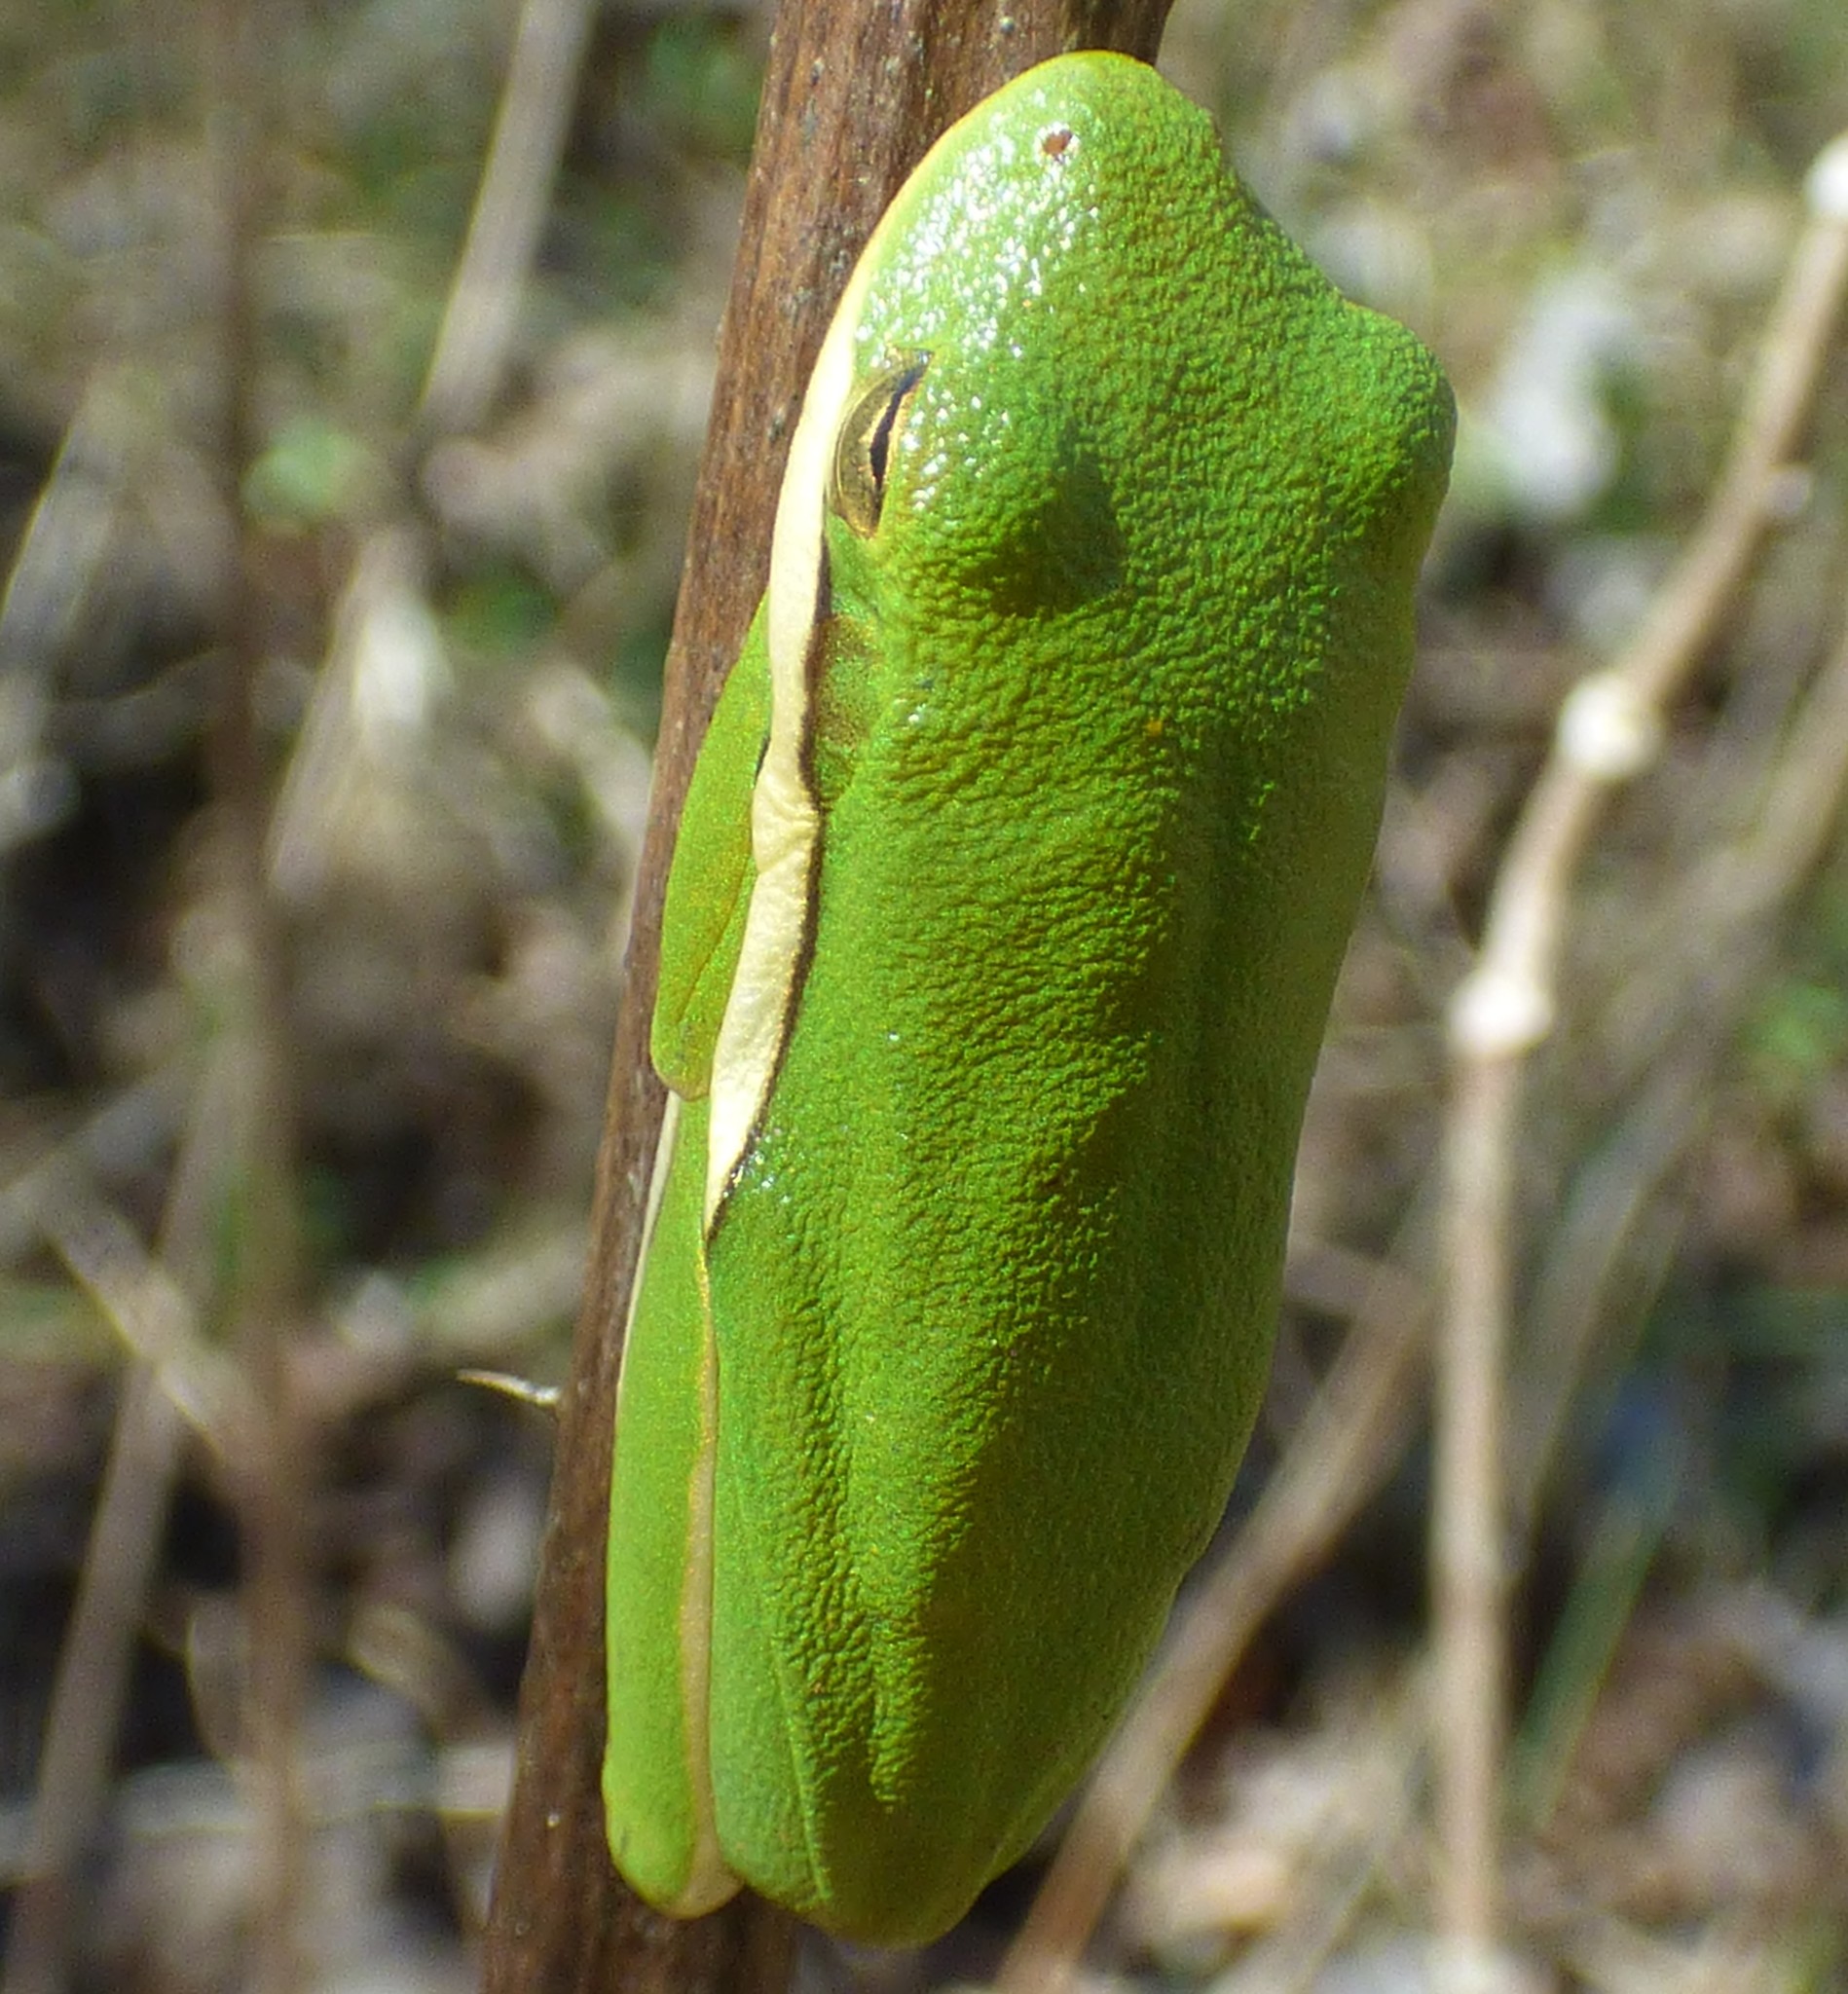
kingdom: Animalia
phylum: Chordata
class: Amphibia
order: Anura
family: Hylidae
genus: Dryophytes
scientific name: Dryophytes cinereus
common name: Green treefrog
